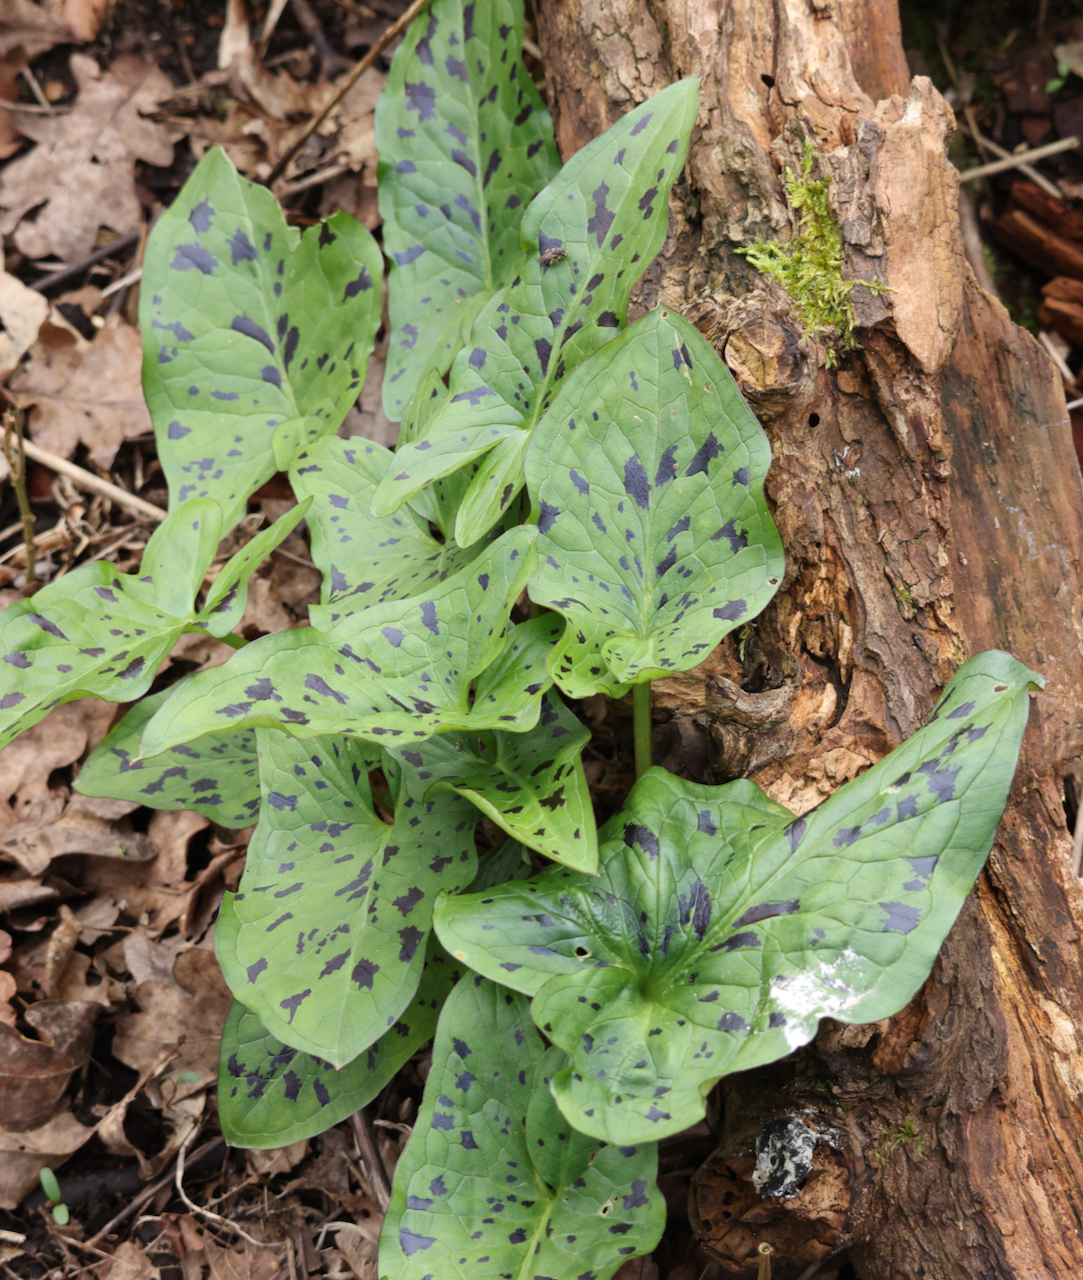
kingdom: Plantae
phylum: Tracheophyta
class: Liliopsida
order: Alismatales
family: Araceae
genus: Arum
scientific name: Arum maculatum
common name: Lords-and-ladies
